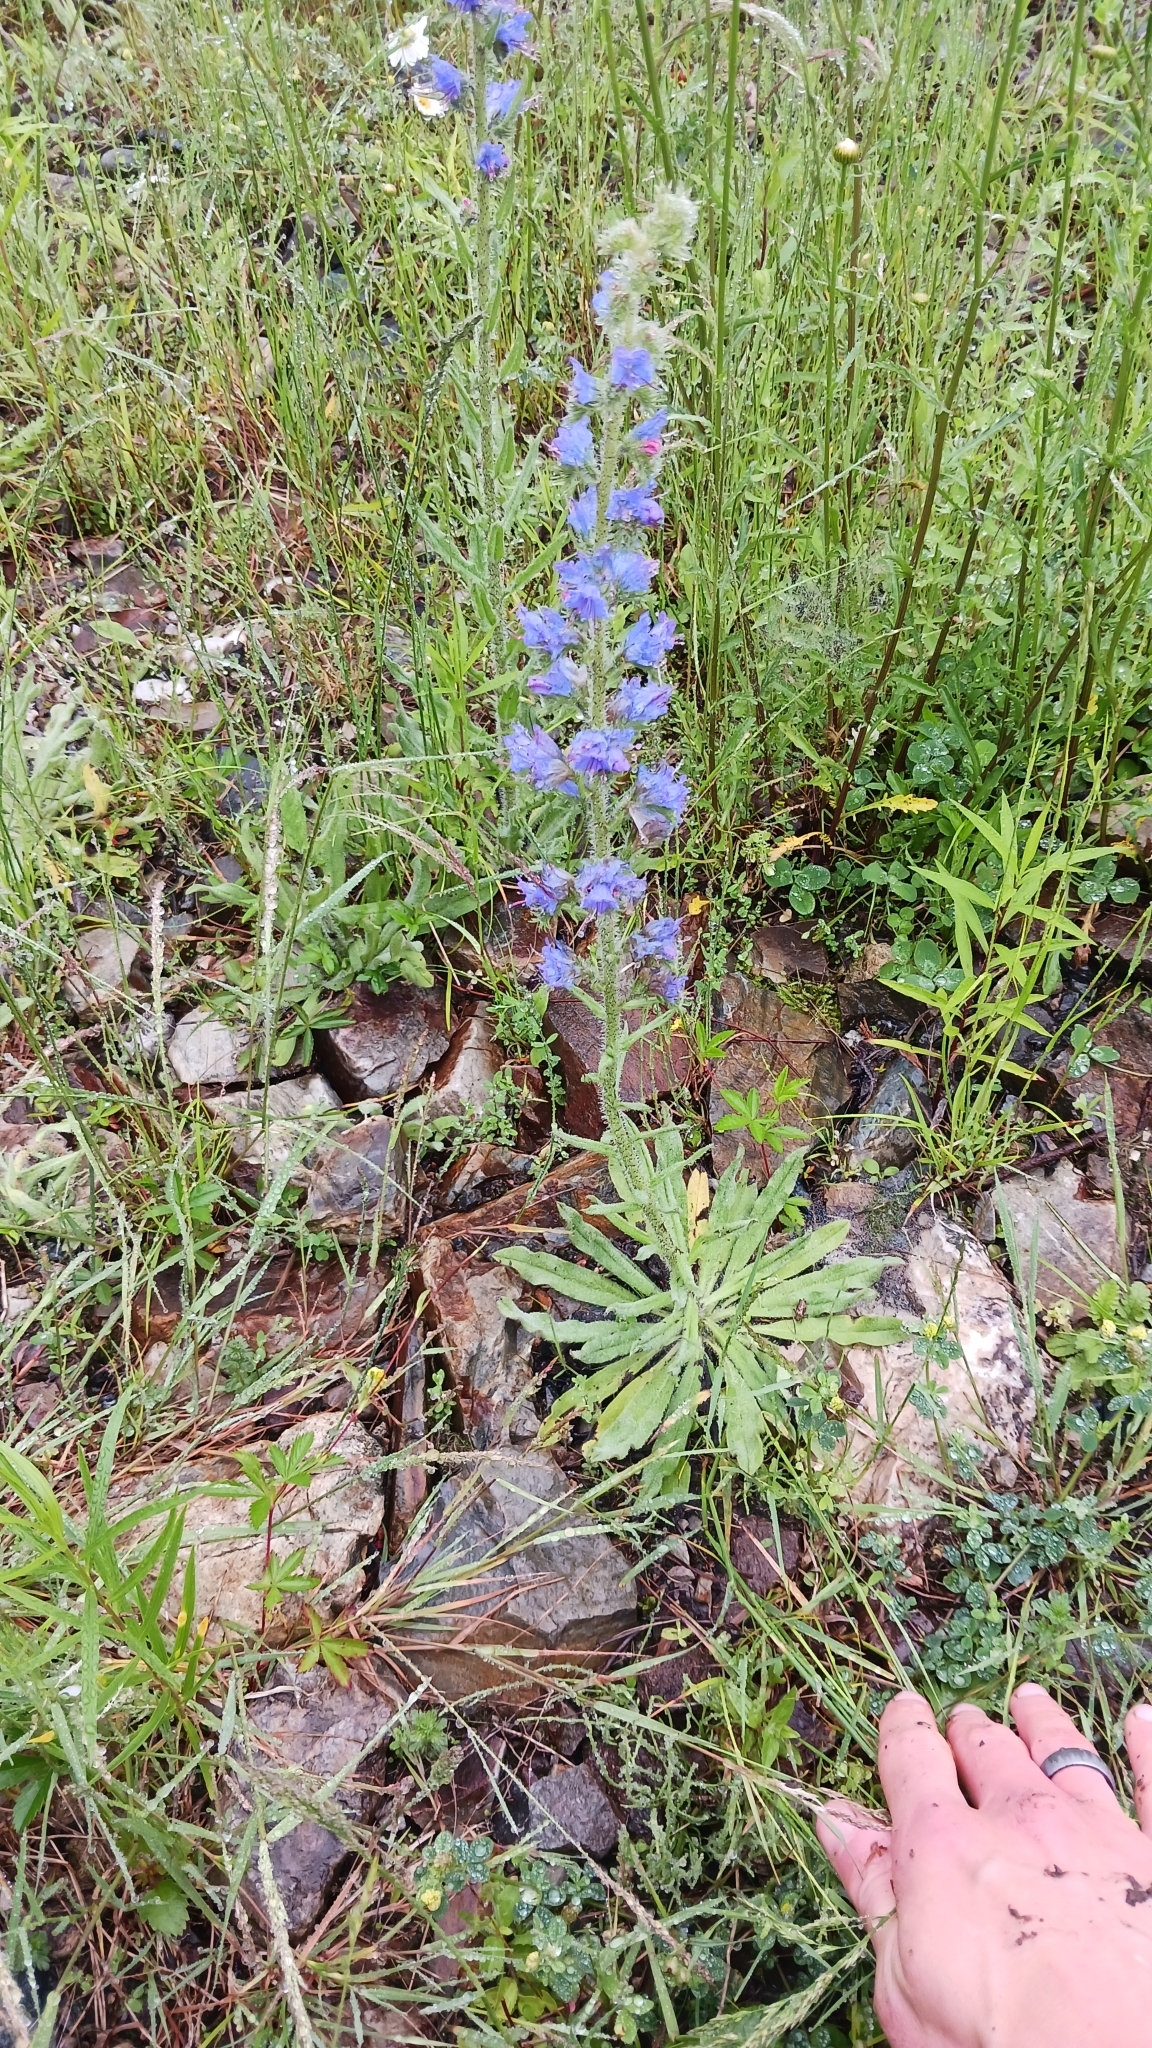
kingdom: Plantae
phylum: Tracheophyta
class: Magnoliopsida
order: Boraginales
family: Boraginaceae
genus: Echium
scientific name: Echium vulgare
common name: Common viper's bugloss
